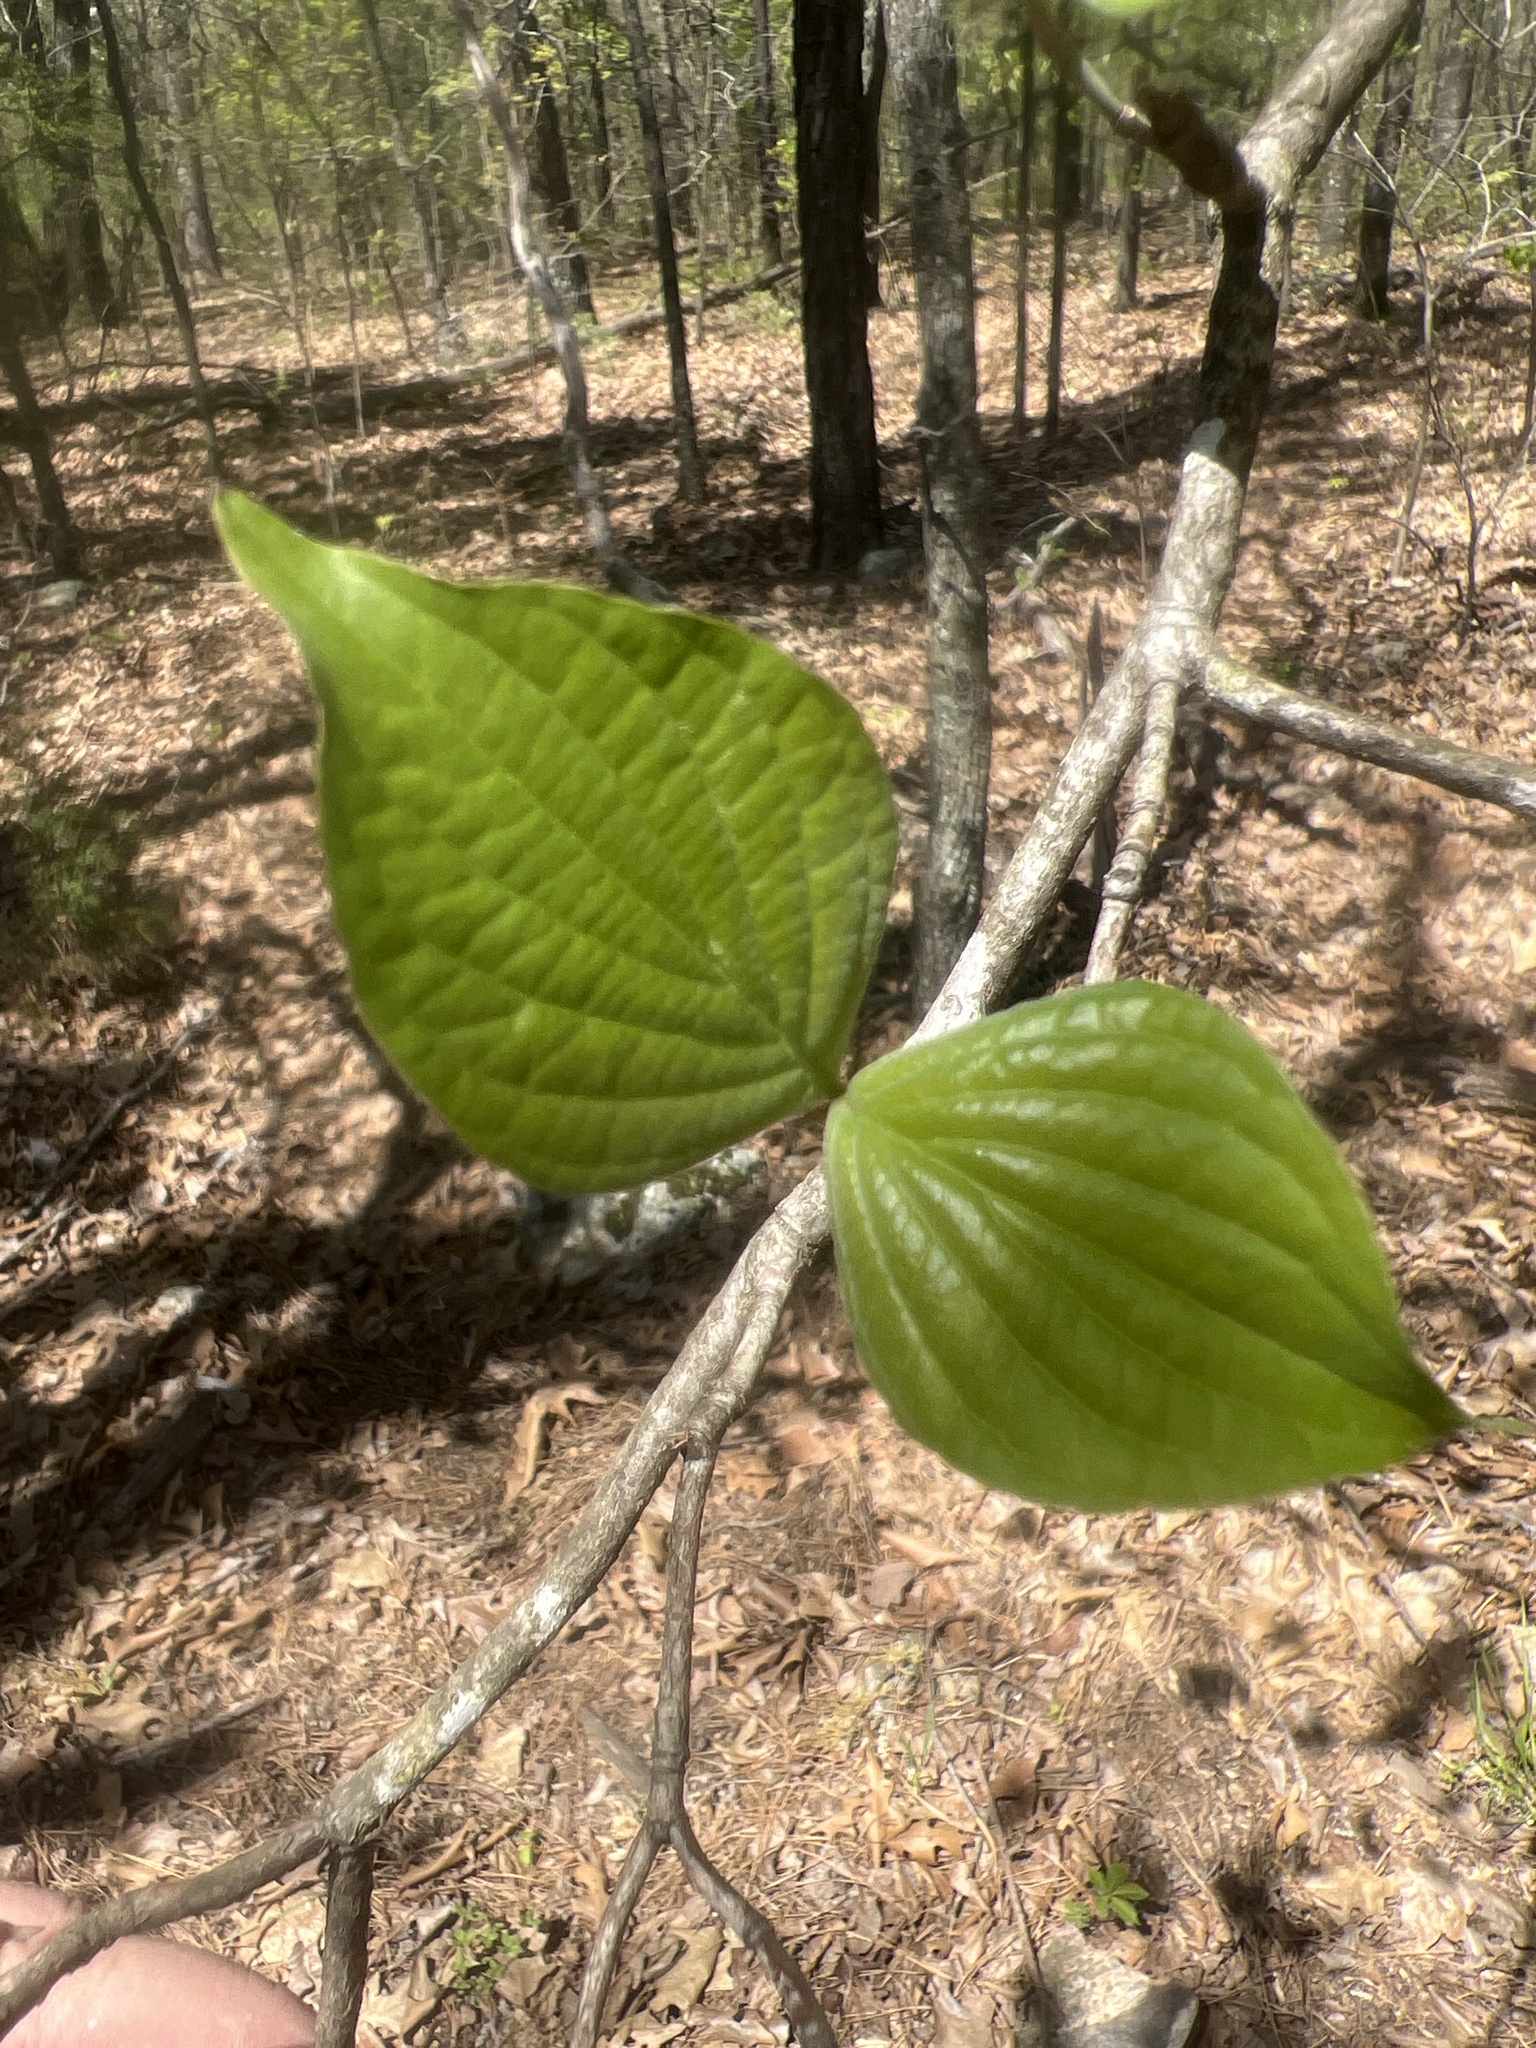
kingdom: Plantae
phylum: Tracheophyta
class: Magnoliopsida
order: Cornales
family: Cornaceae
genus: Cornus
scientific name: Cornus florida
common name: Flowering dogwood
